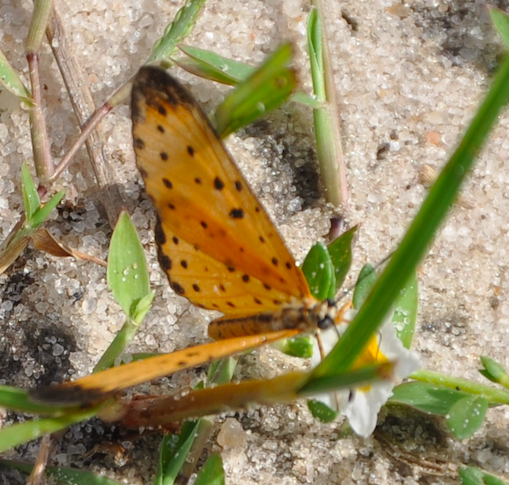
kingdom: Animalia
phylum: Arthropoda
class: Insecta
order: Lepidoptera
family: Nymphalidae
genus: Pardopsis
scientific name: Pardopsis punctatissima
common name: Polka dot
